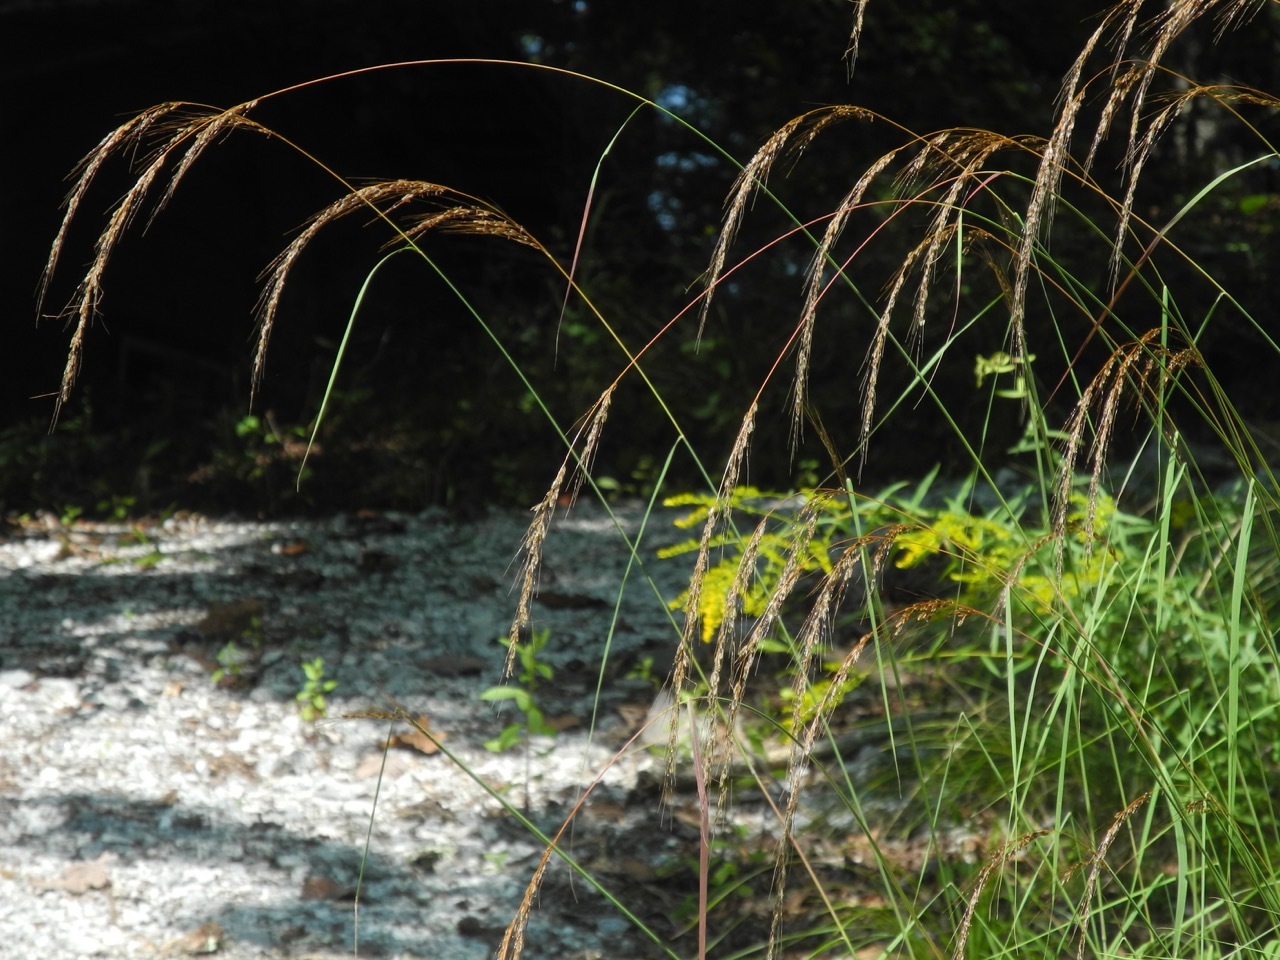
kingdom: Plantae
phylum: Tracheophyta
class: Liliopsida
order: Poales
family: Poaceae
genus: Sorghastrum
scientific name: Sorghastrum elliottii
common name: Slender indian grass
